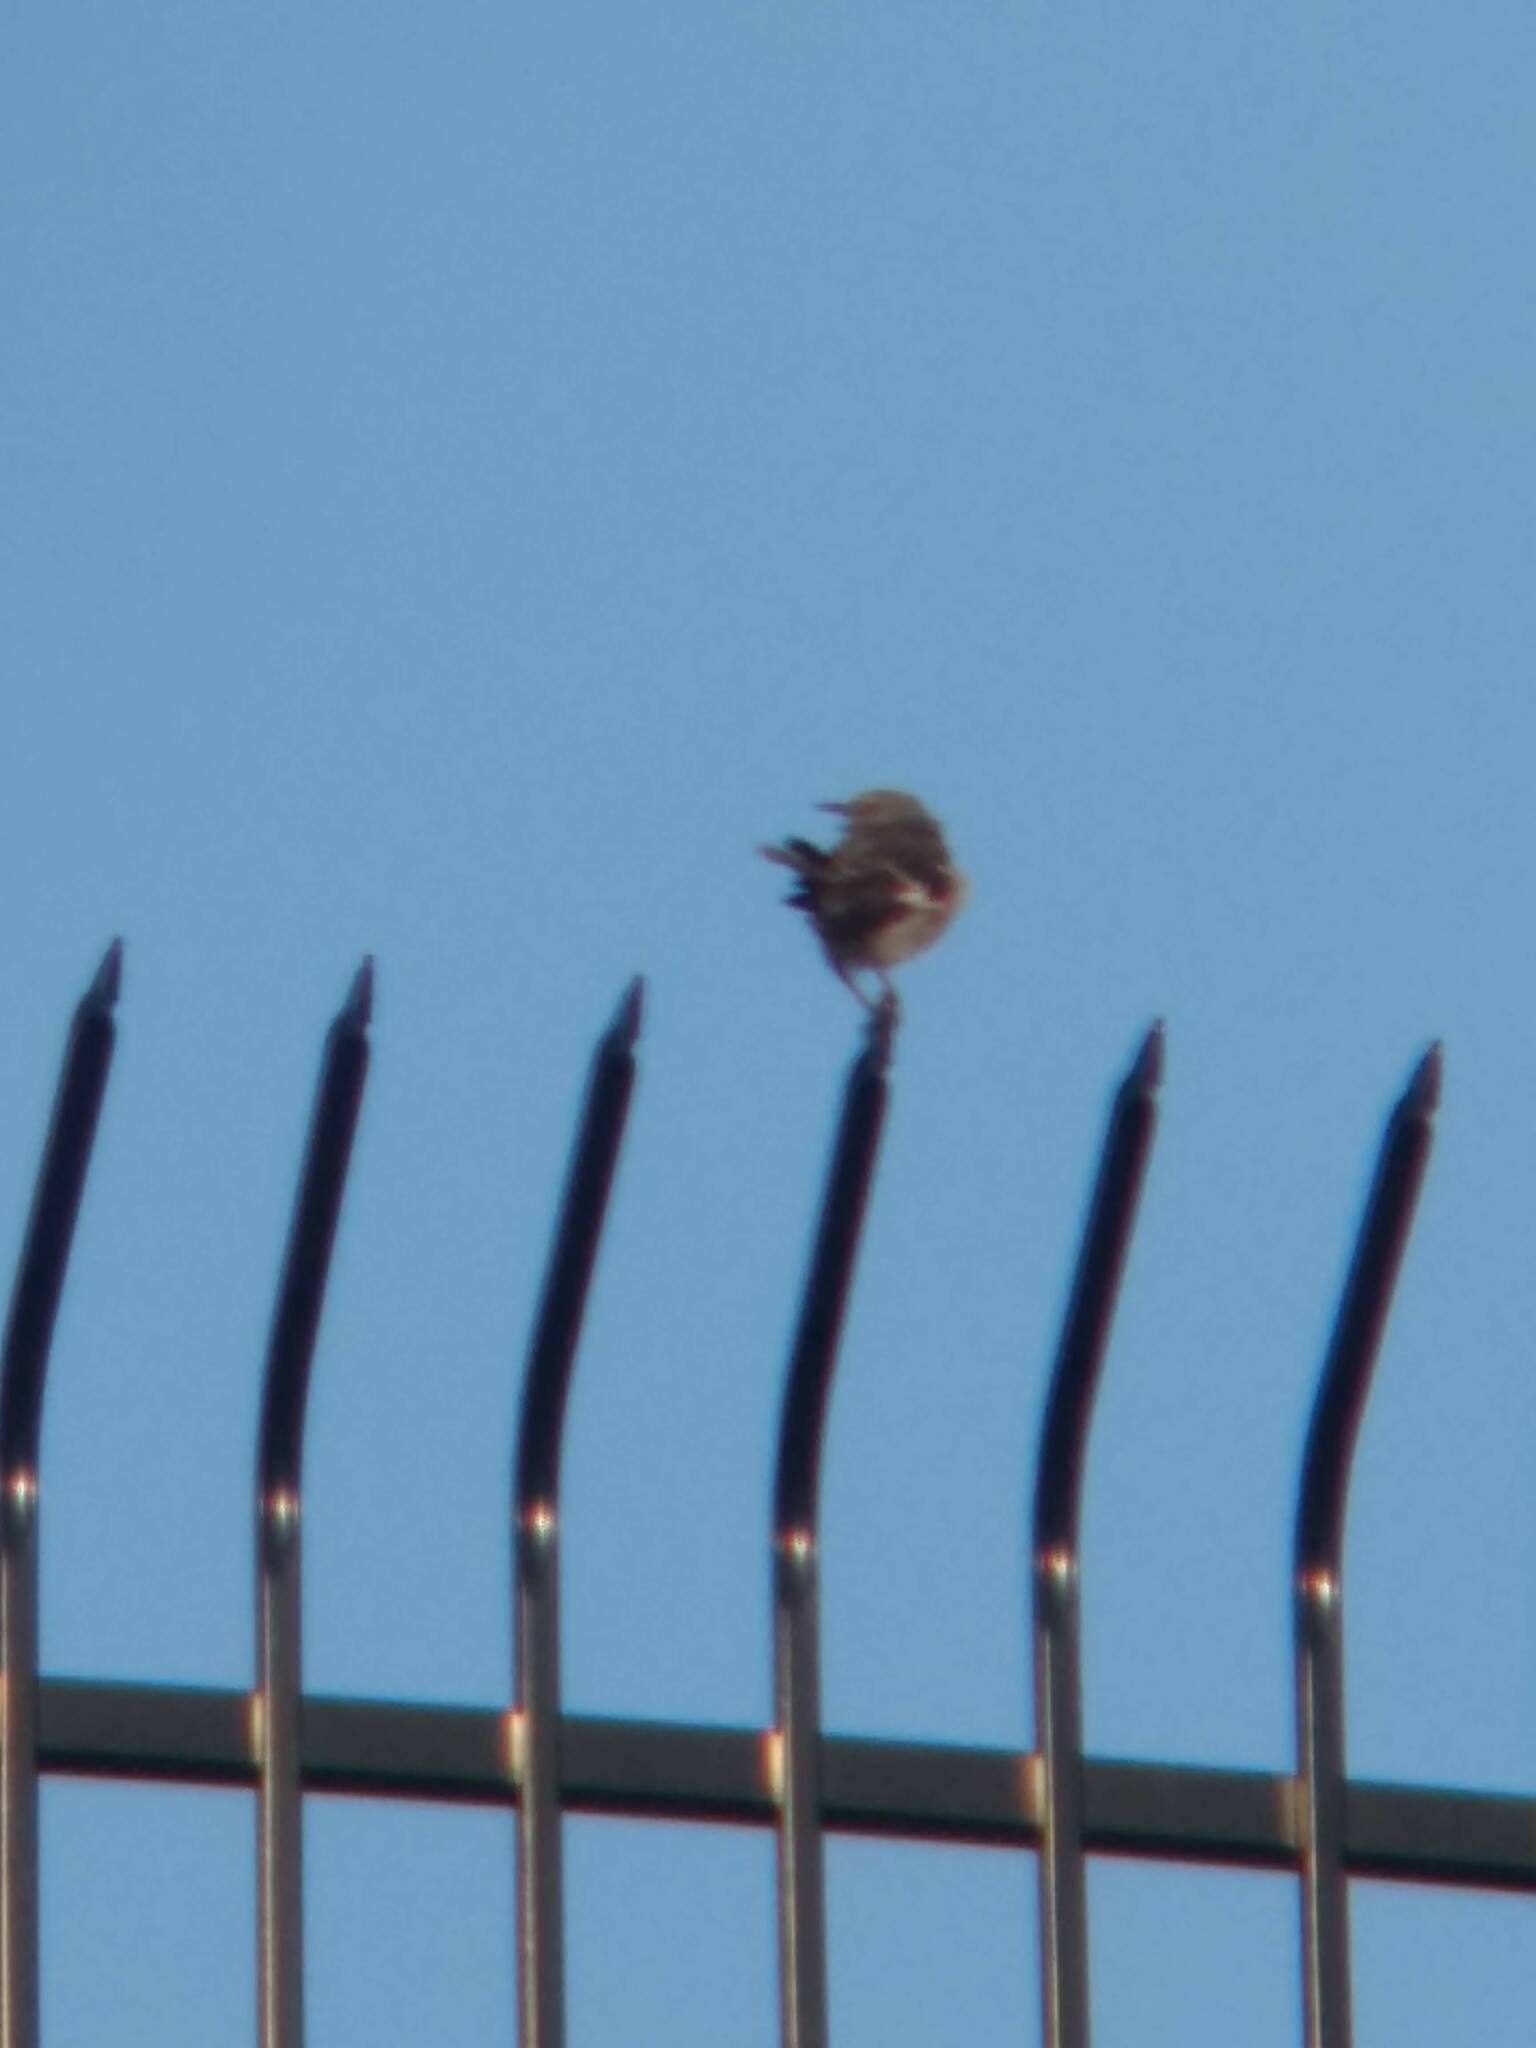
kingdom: Animalia
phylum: Chordata
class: Aves
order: Passeriformes
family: Mimidae
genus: Mimus
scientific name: Mimus polyglottos
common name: Northern mockingbird
